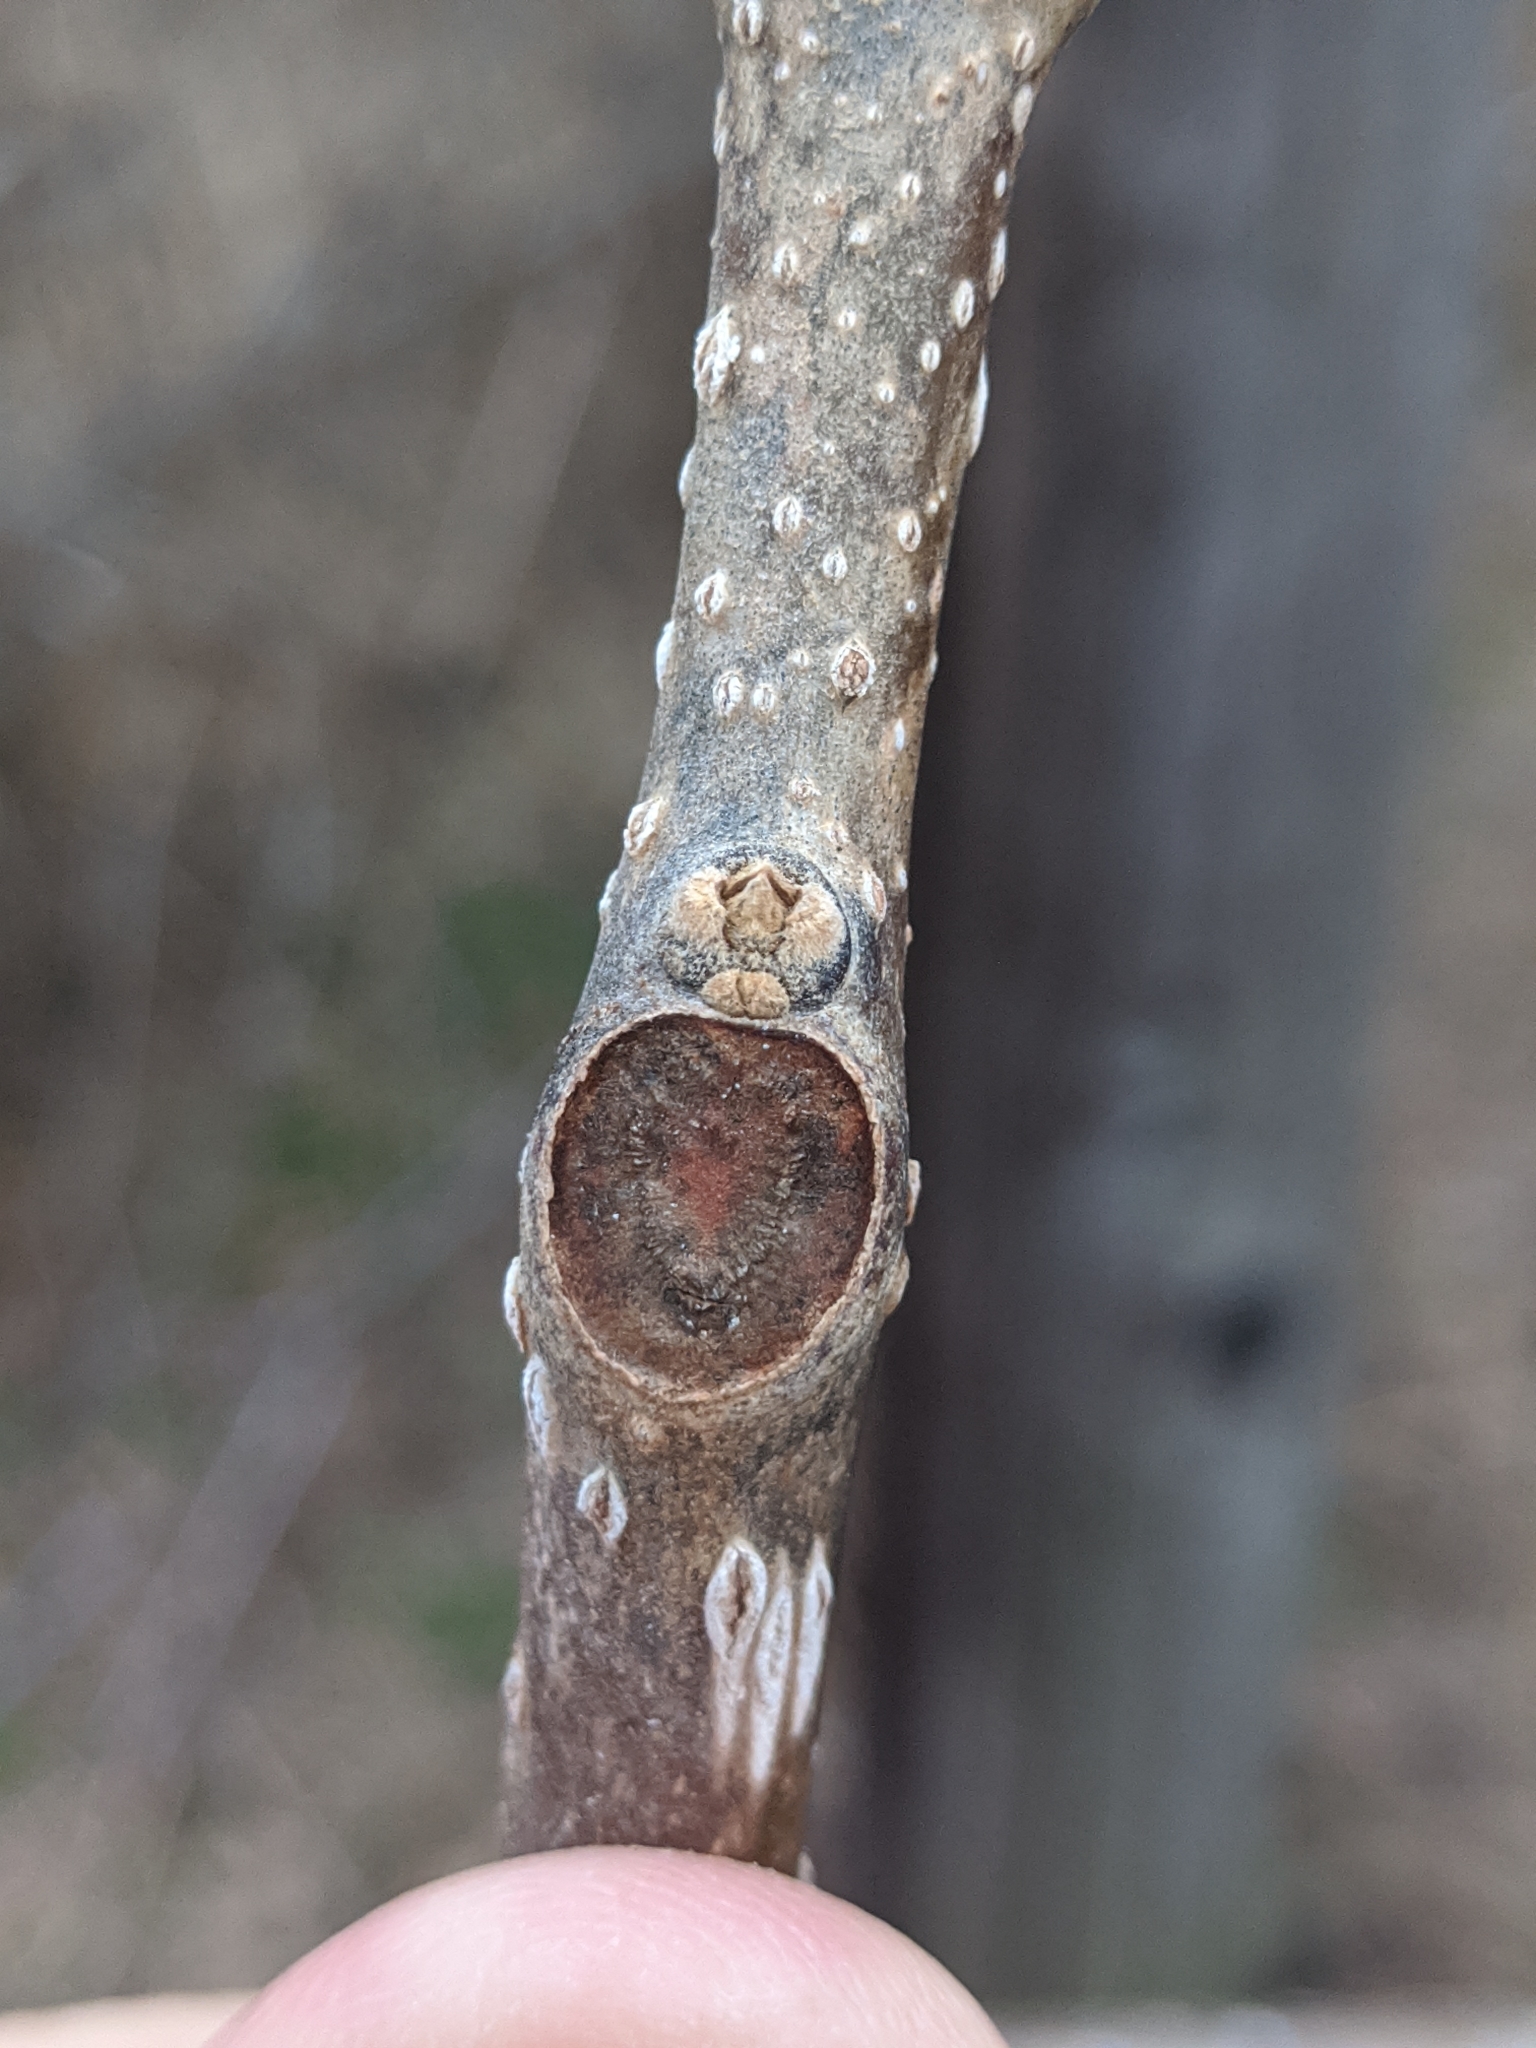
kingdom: Plantae
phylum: Tracheophyta
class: Magnoliopsida
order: Lamiales
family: Paulowniaceae
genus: Paulownia
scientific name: Paulownia tomentosa
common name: Foxglove-tree
